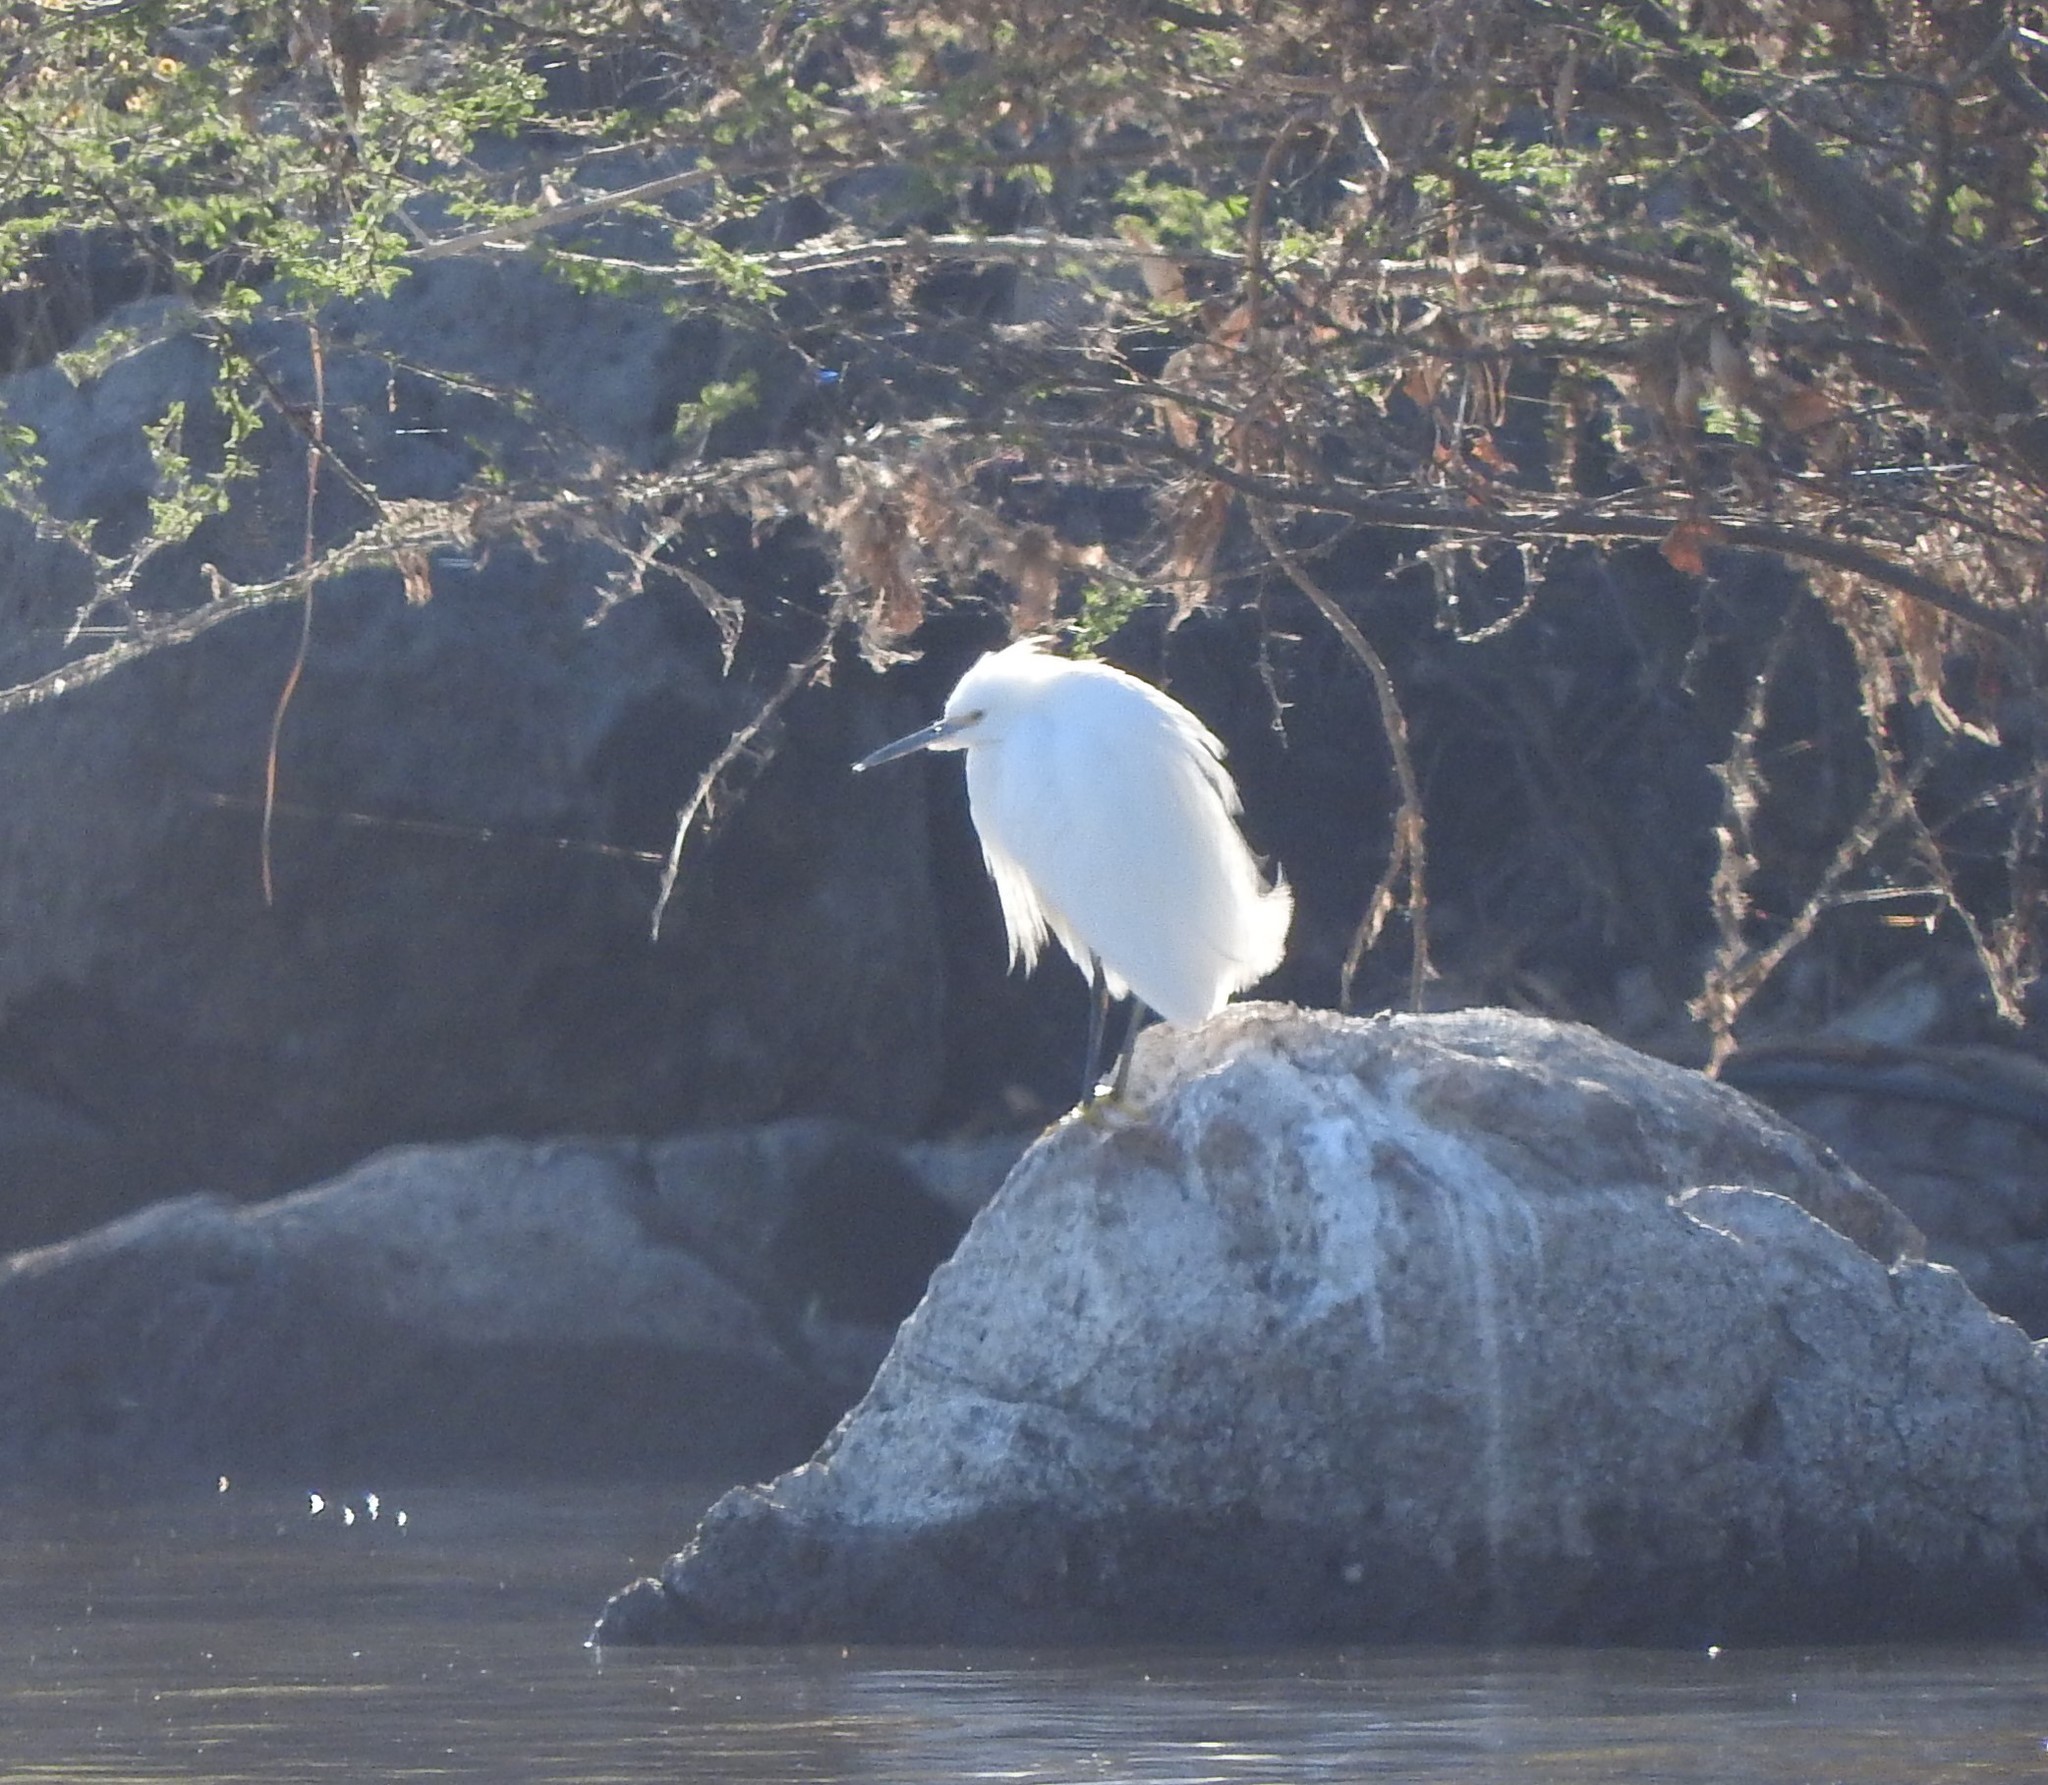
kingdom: Animalia
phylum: Chordata
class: Aves
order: Pelecaniformes
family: Ardeidae
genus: Egretta
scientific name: Egretta thula
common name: Snowy egret
